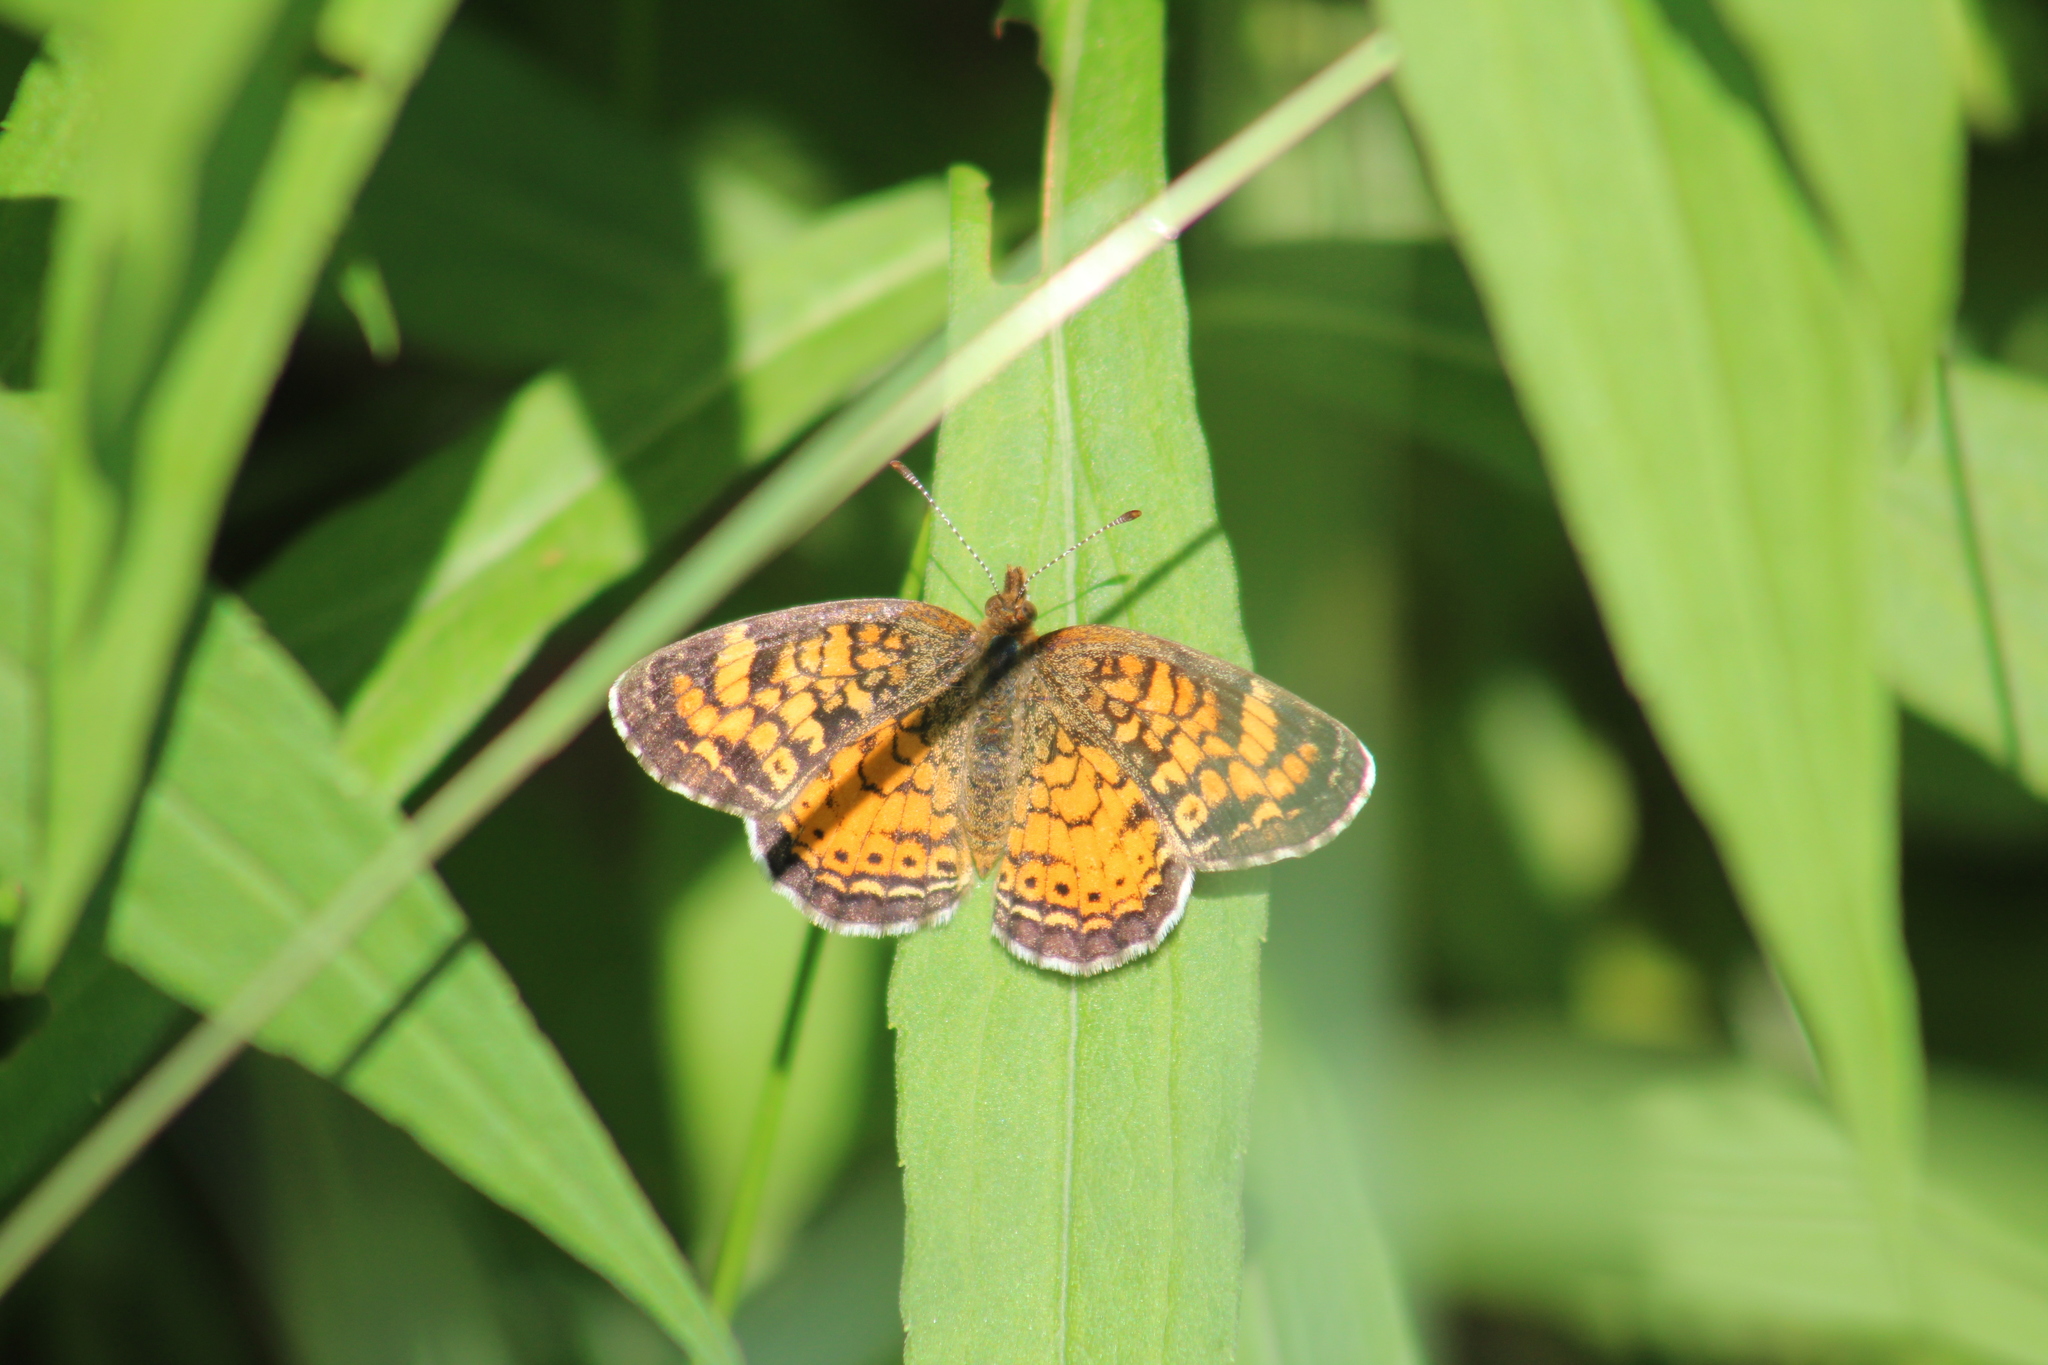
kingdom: Animalia
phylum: Arthropoda
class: Insecta
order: Lepidoptera
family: Nymphalidae
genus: Phyciodes
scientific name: Phyciodes tharos
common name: Pearl crescent
